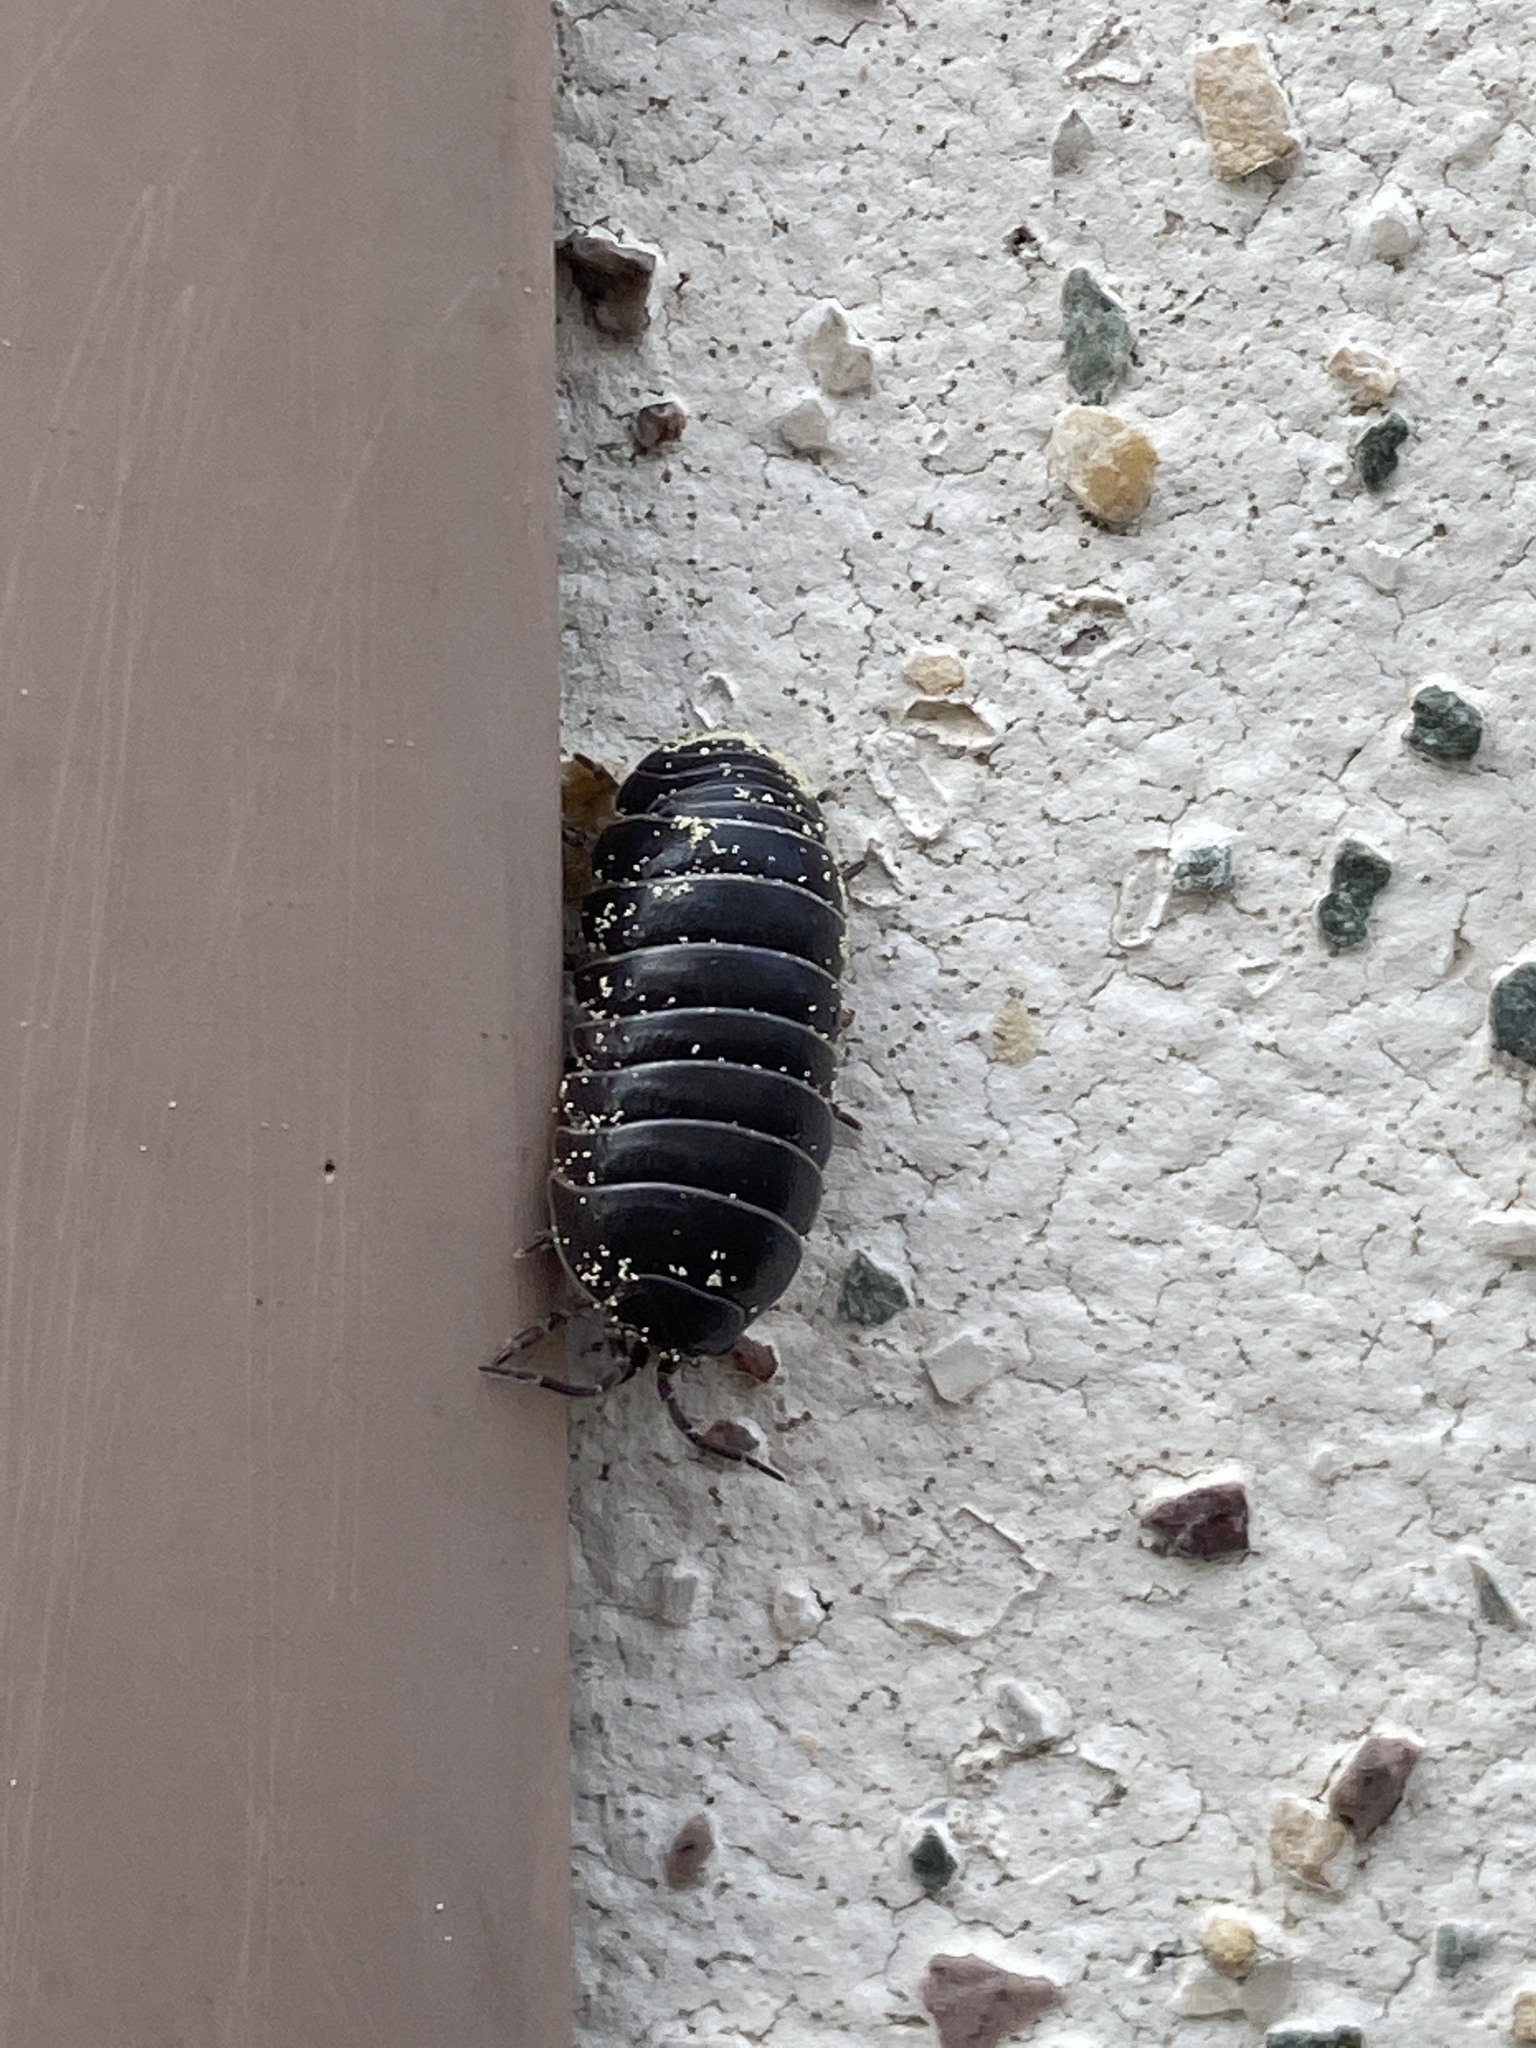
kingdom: Animalia
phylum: Arthropoda
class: Malacostraca
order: Isopoda
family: Armadillidiidae
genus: Armadillidium
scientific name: Armadillidium vulgare
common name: Common pill woodlouse
